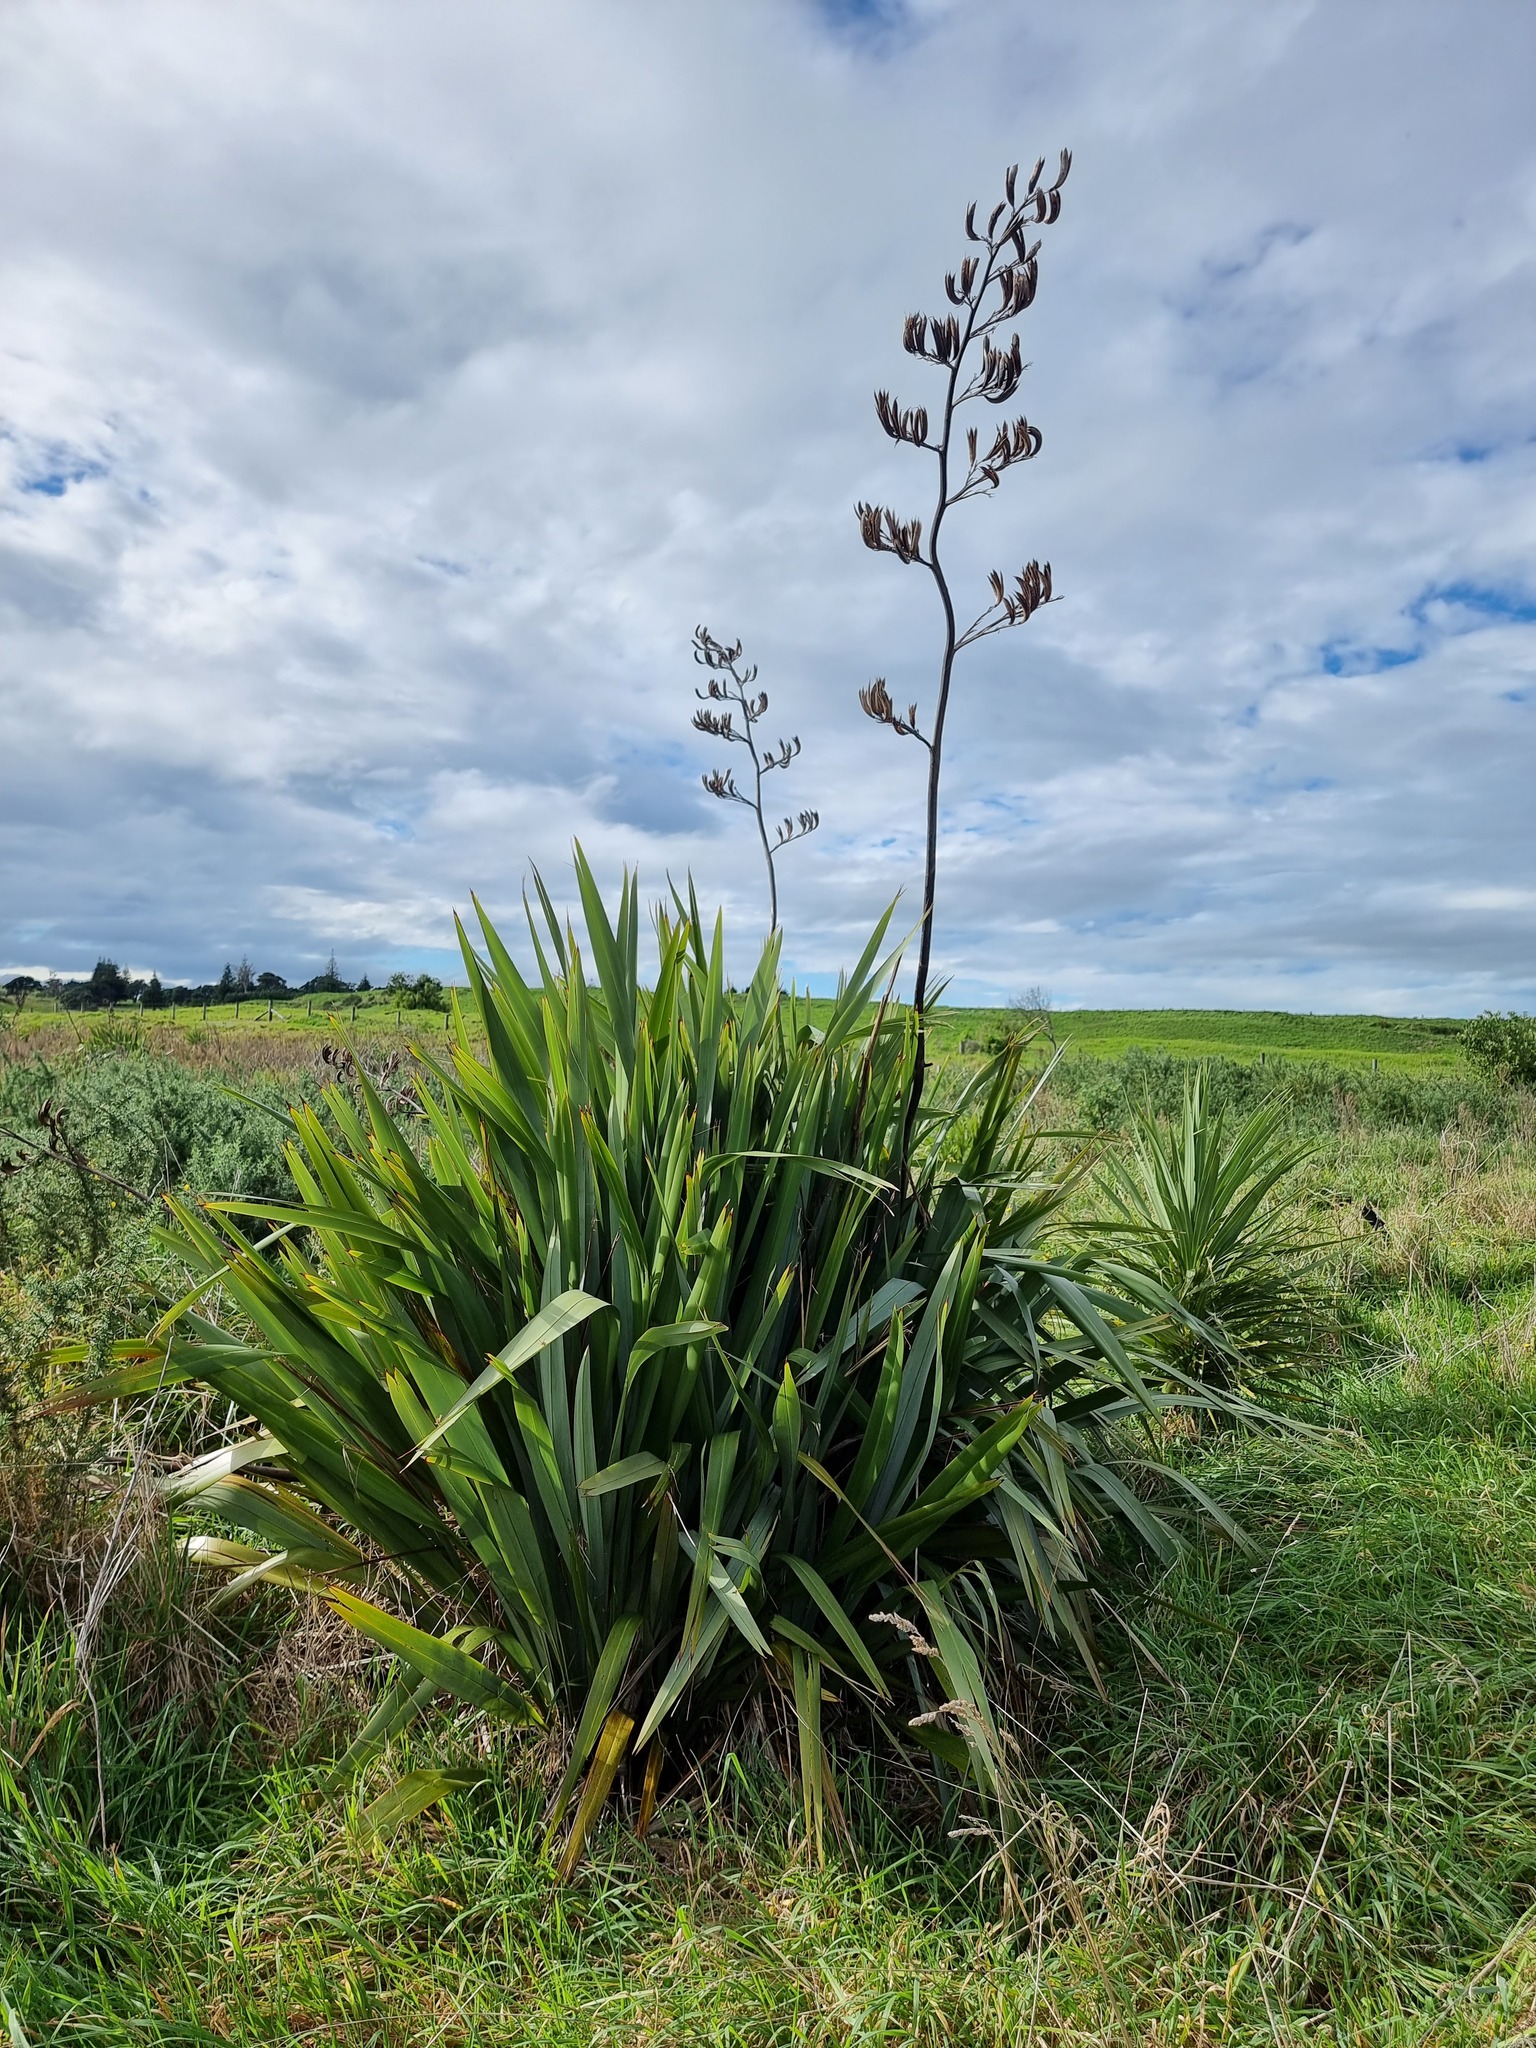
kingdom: Plantae
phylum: Tracheophyta
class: Liliopsida
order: Asparagales
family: Asphodelaceae
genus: Phormium
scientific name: Phormium tenax
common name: New zealand flax
